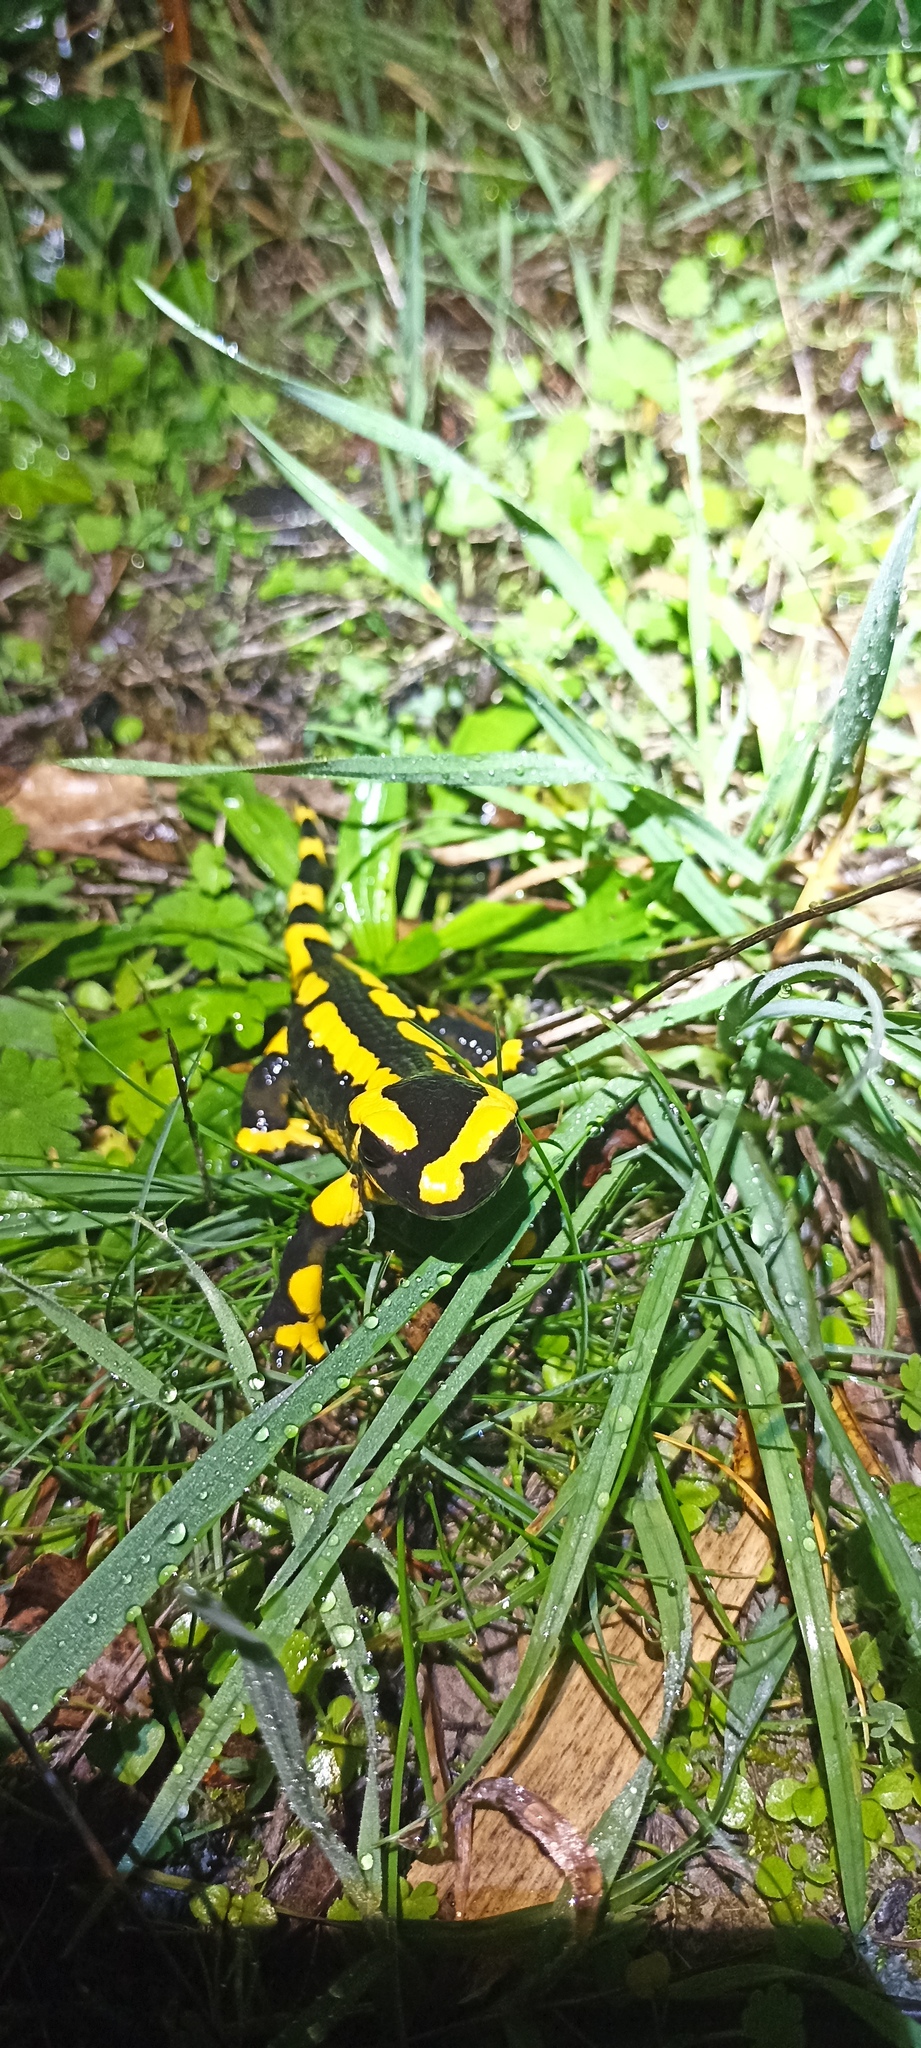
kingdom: Animalia
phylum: Chordata
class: Amphibia
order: Caudata
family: Salamandridae
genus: Salamandra
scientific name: Salamandra salamandra
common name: Fire salamander
